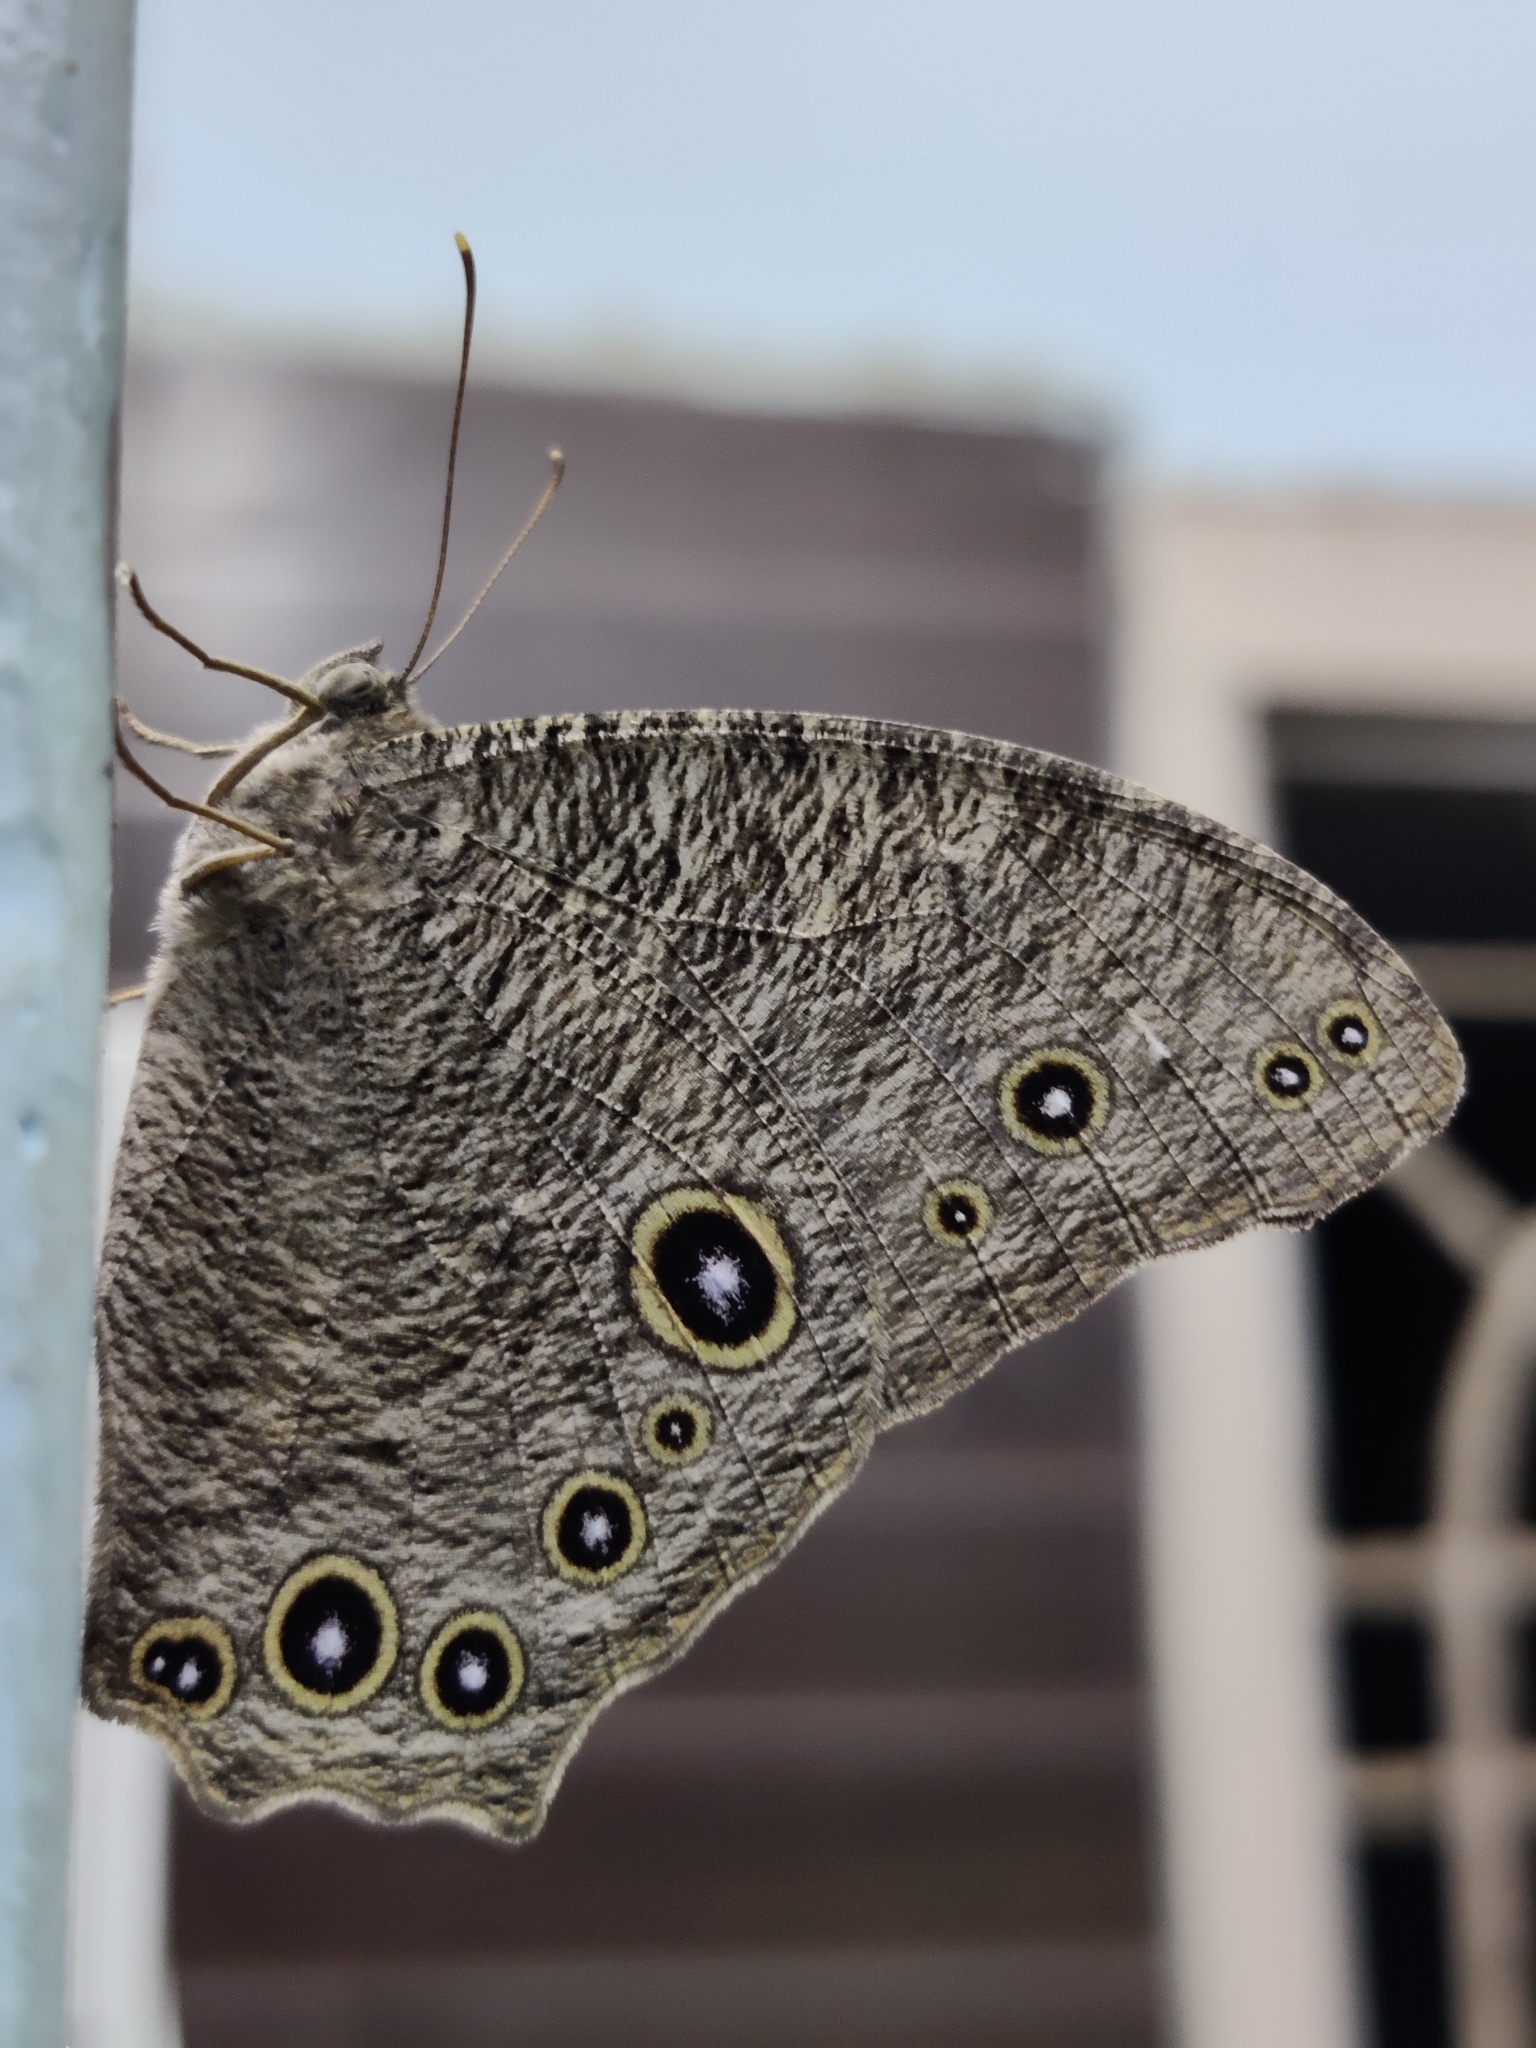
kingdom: Animalia
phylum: Arthropoda
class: Insecta
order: Lepidoptera
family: Nymphalidae
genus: Melanitis
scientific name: Melanitis leda
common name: Twilight brown
